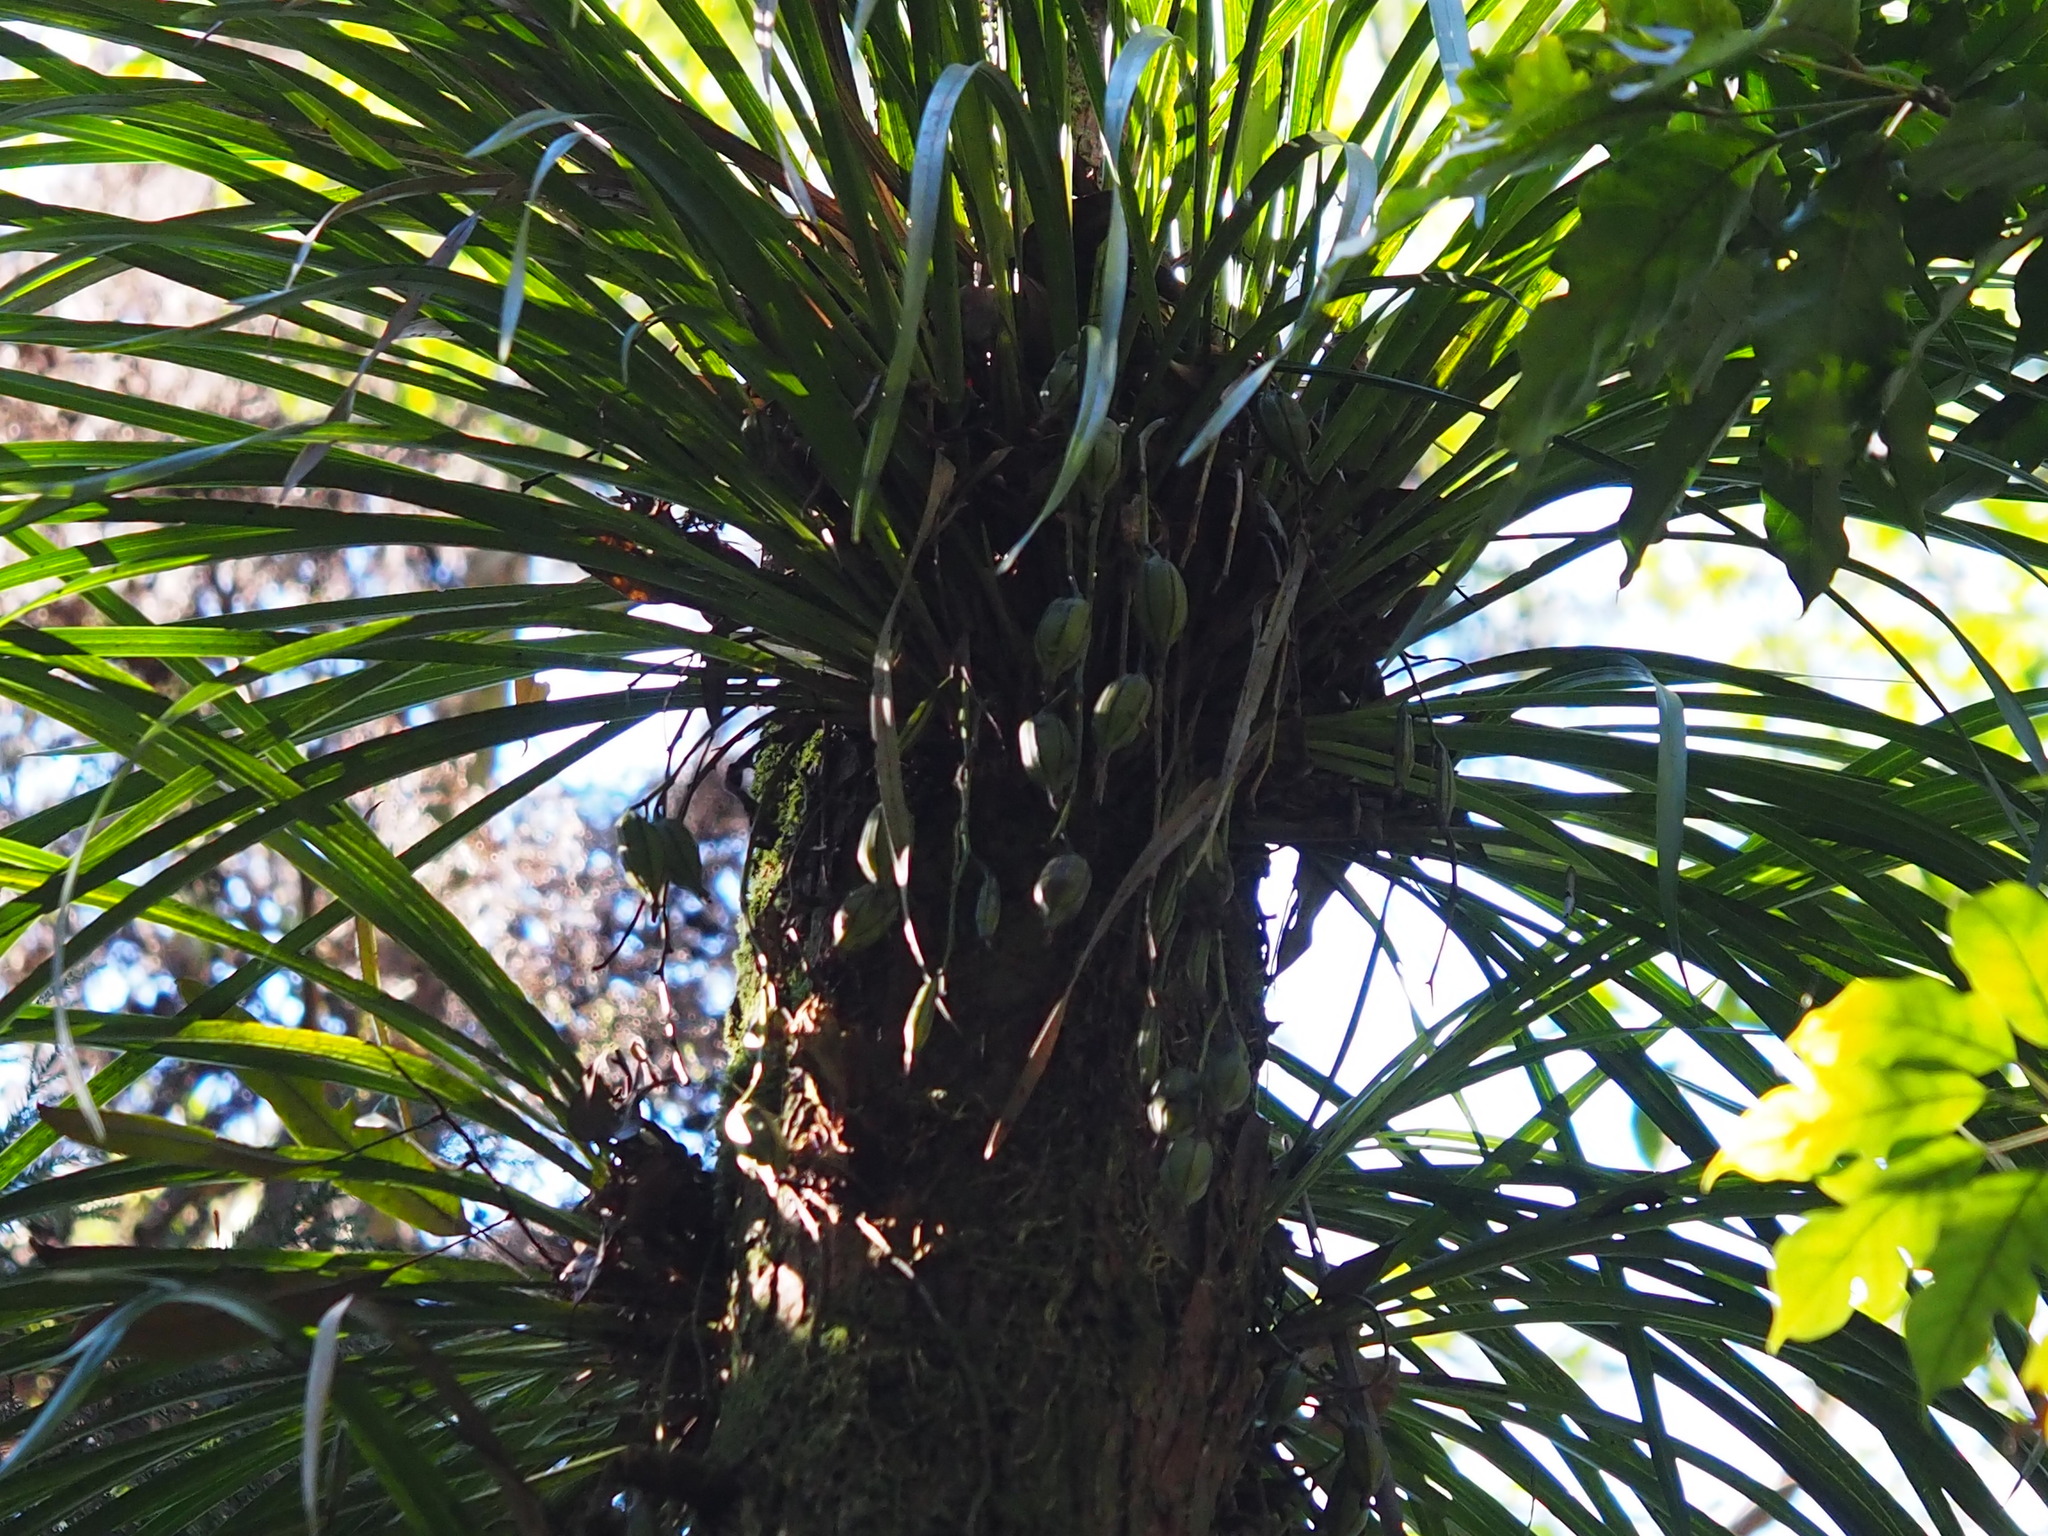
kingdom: Plantae
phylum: Tracheophyta
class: Liliopsida
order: Asparagales
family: Orchidaceae
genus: Cymbidium
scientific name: Cymbidium dayanum
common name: Orchid
